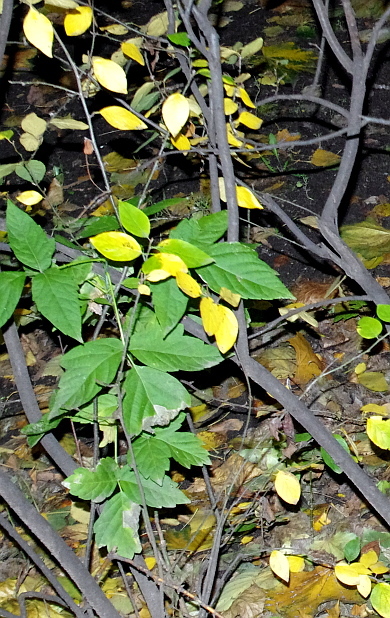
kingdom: Plantae
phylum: Tracheophyta
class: Magnoliopsida
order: Sapindales
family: Sapindaceae
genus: Acer
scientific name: Acer negundo
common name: Ashleaf maple
